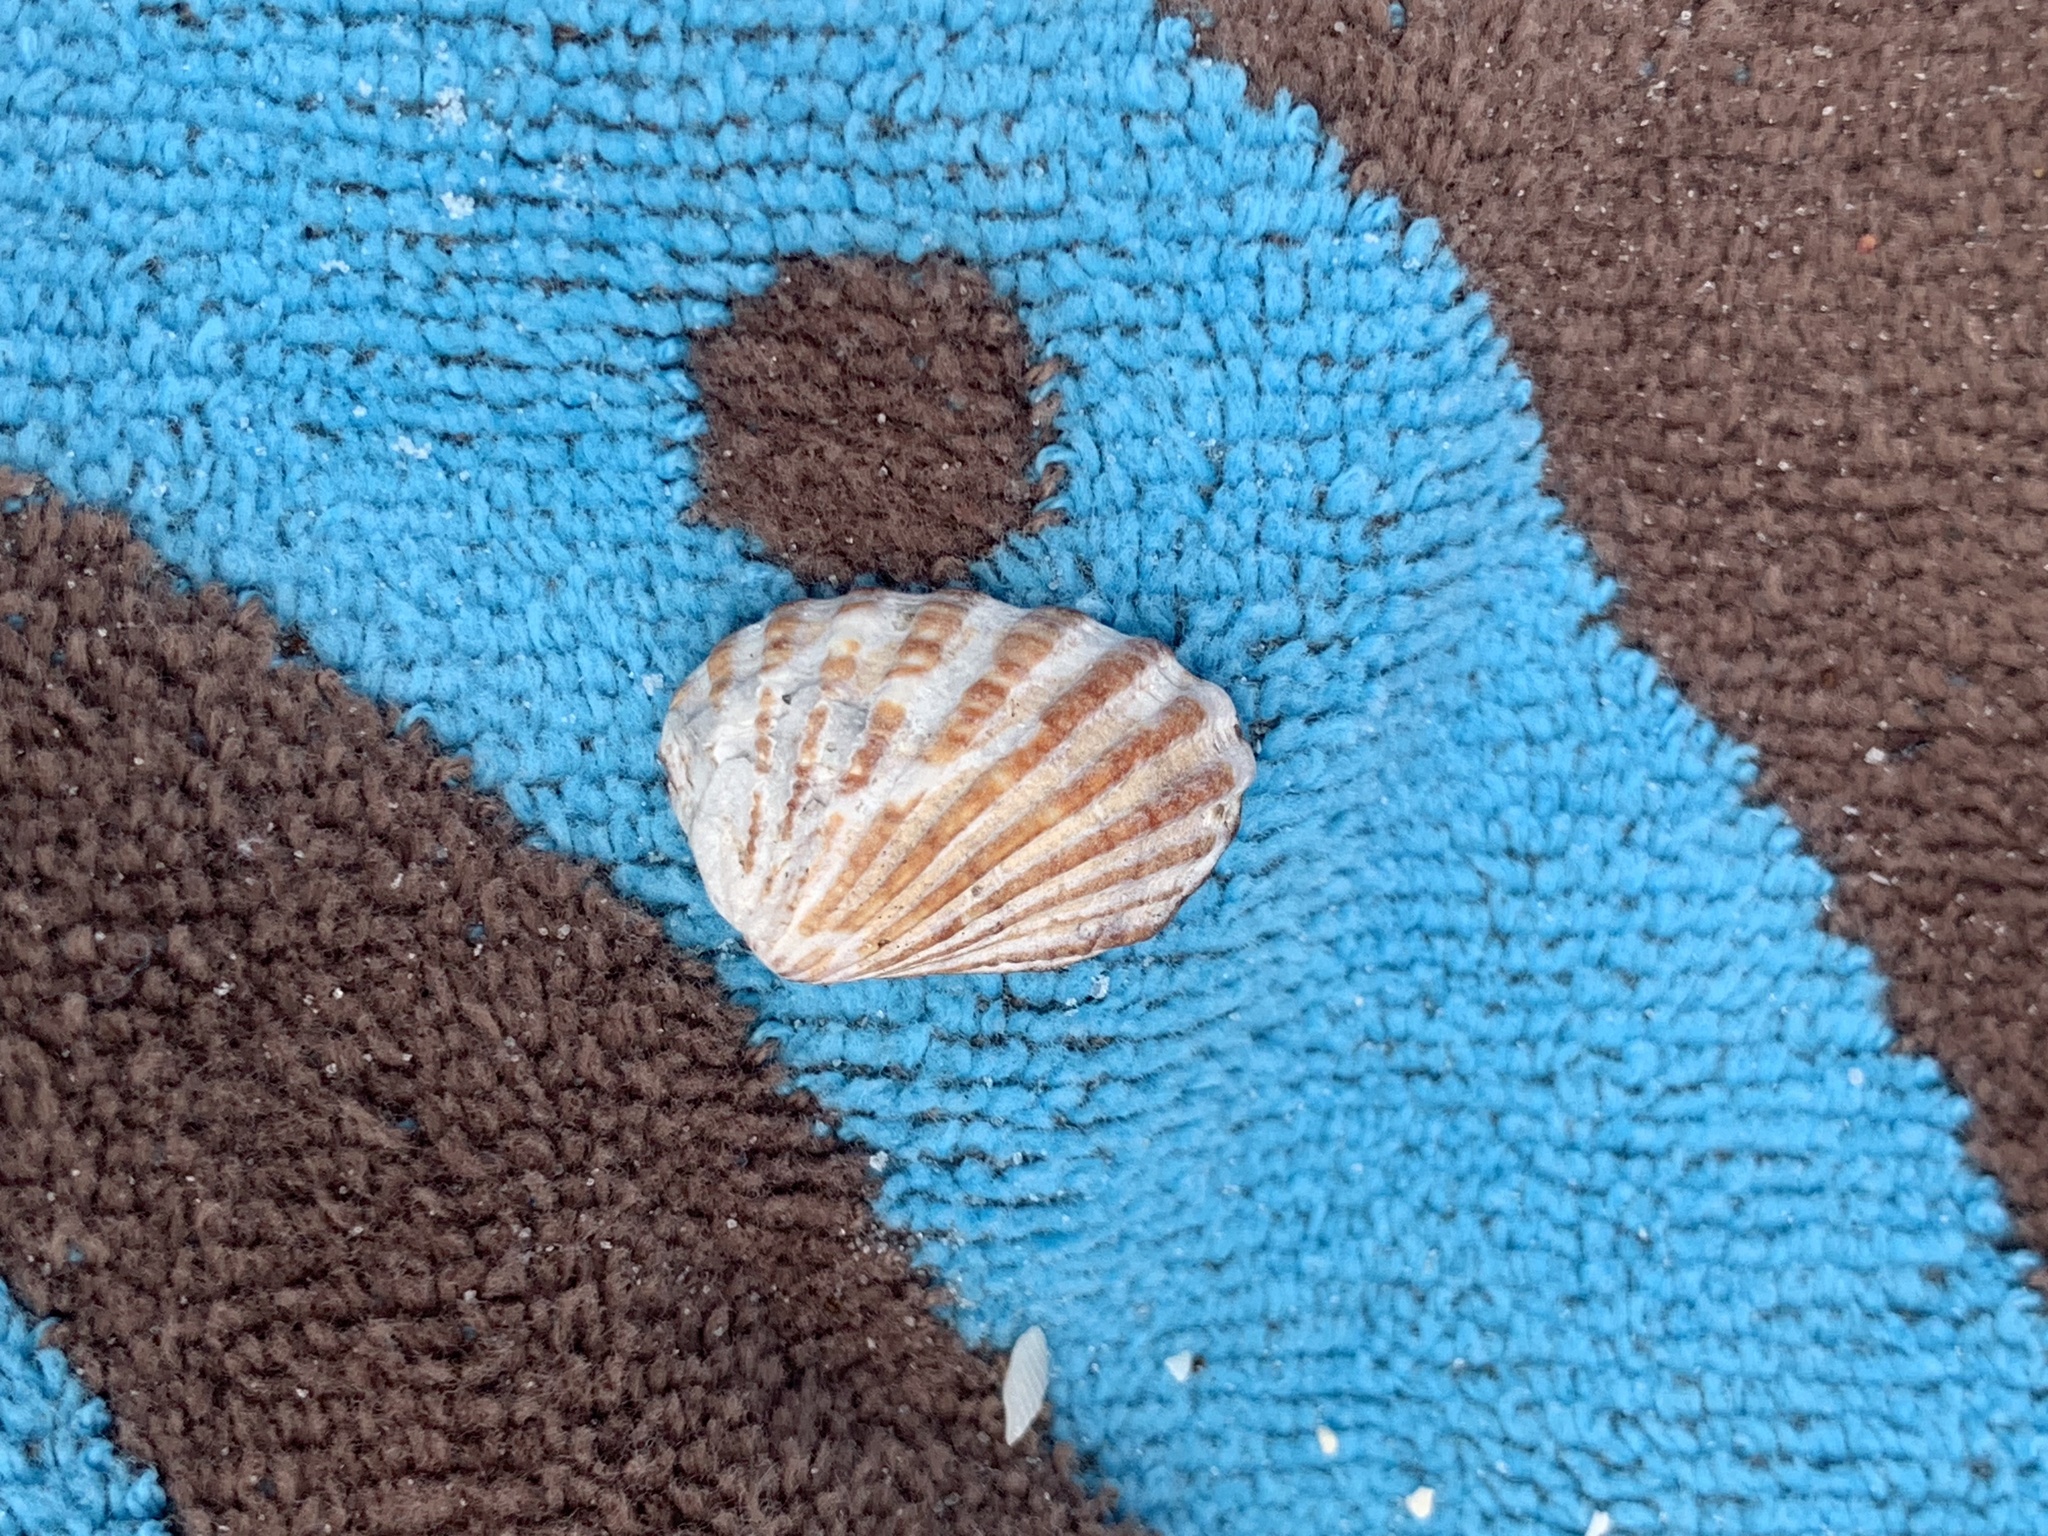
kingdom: Animalia
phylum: Mollusca
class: Bivalvia
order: Carditida
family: Carditidae
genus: Cardites
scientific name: Cardites floridanus
